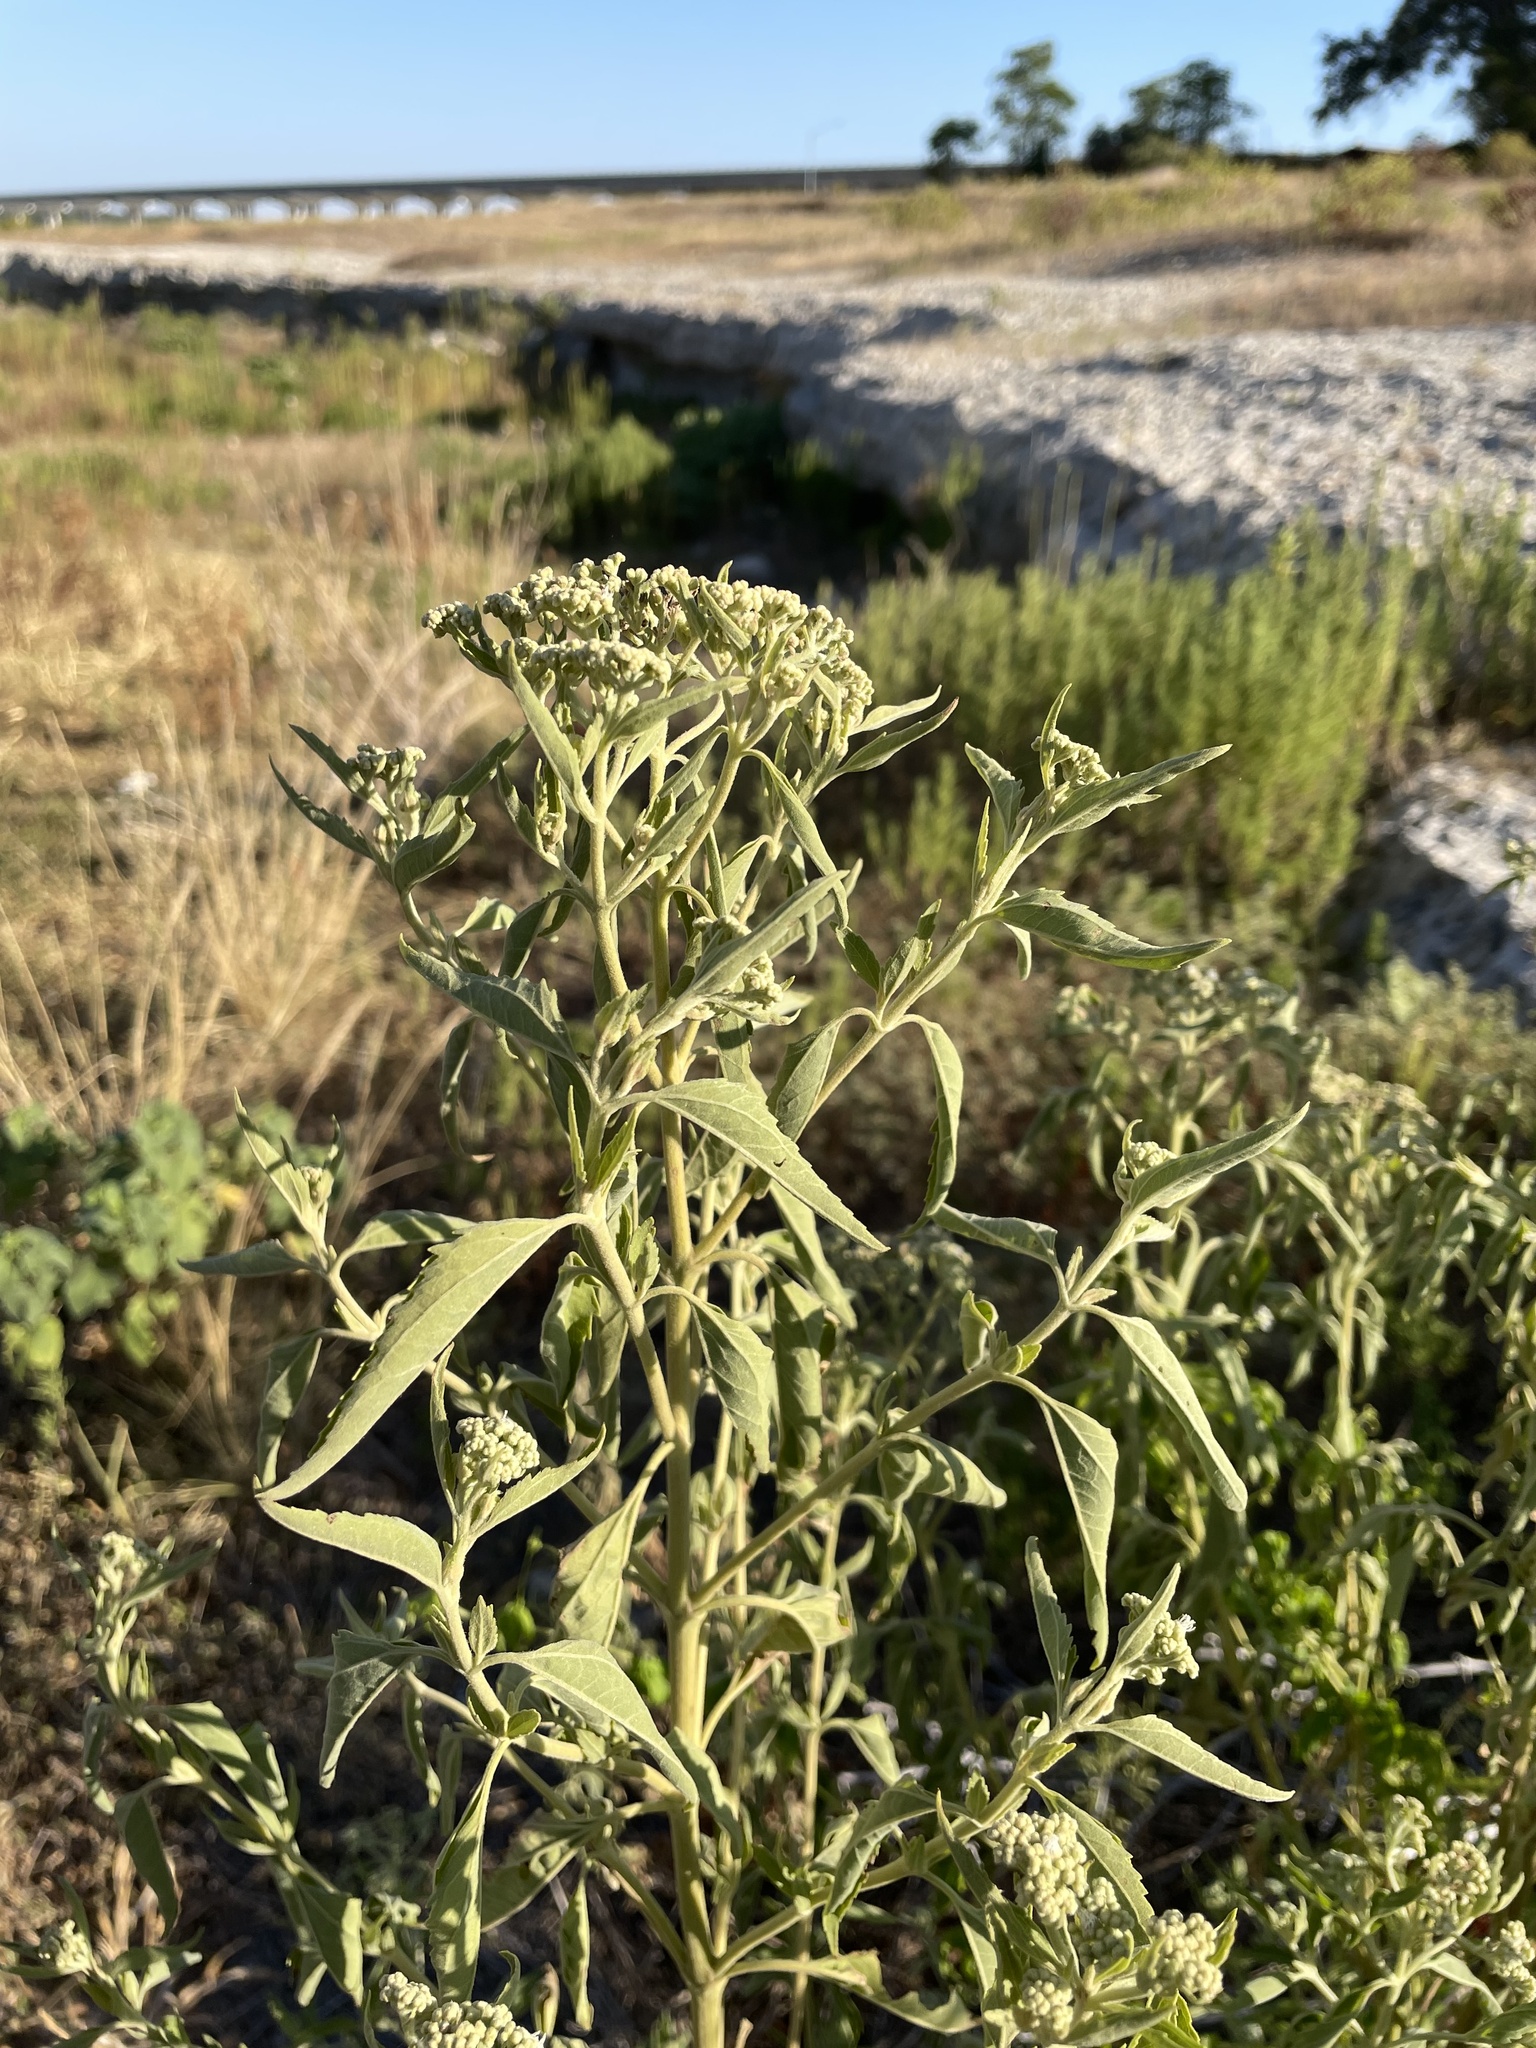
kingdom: Plantae
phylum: Tracheophyta
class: Magnoliopsida
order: Asterales
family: Asteraceae
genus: Eupatorium
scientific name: Eupatorium serotinum
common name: Late boneset
